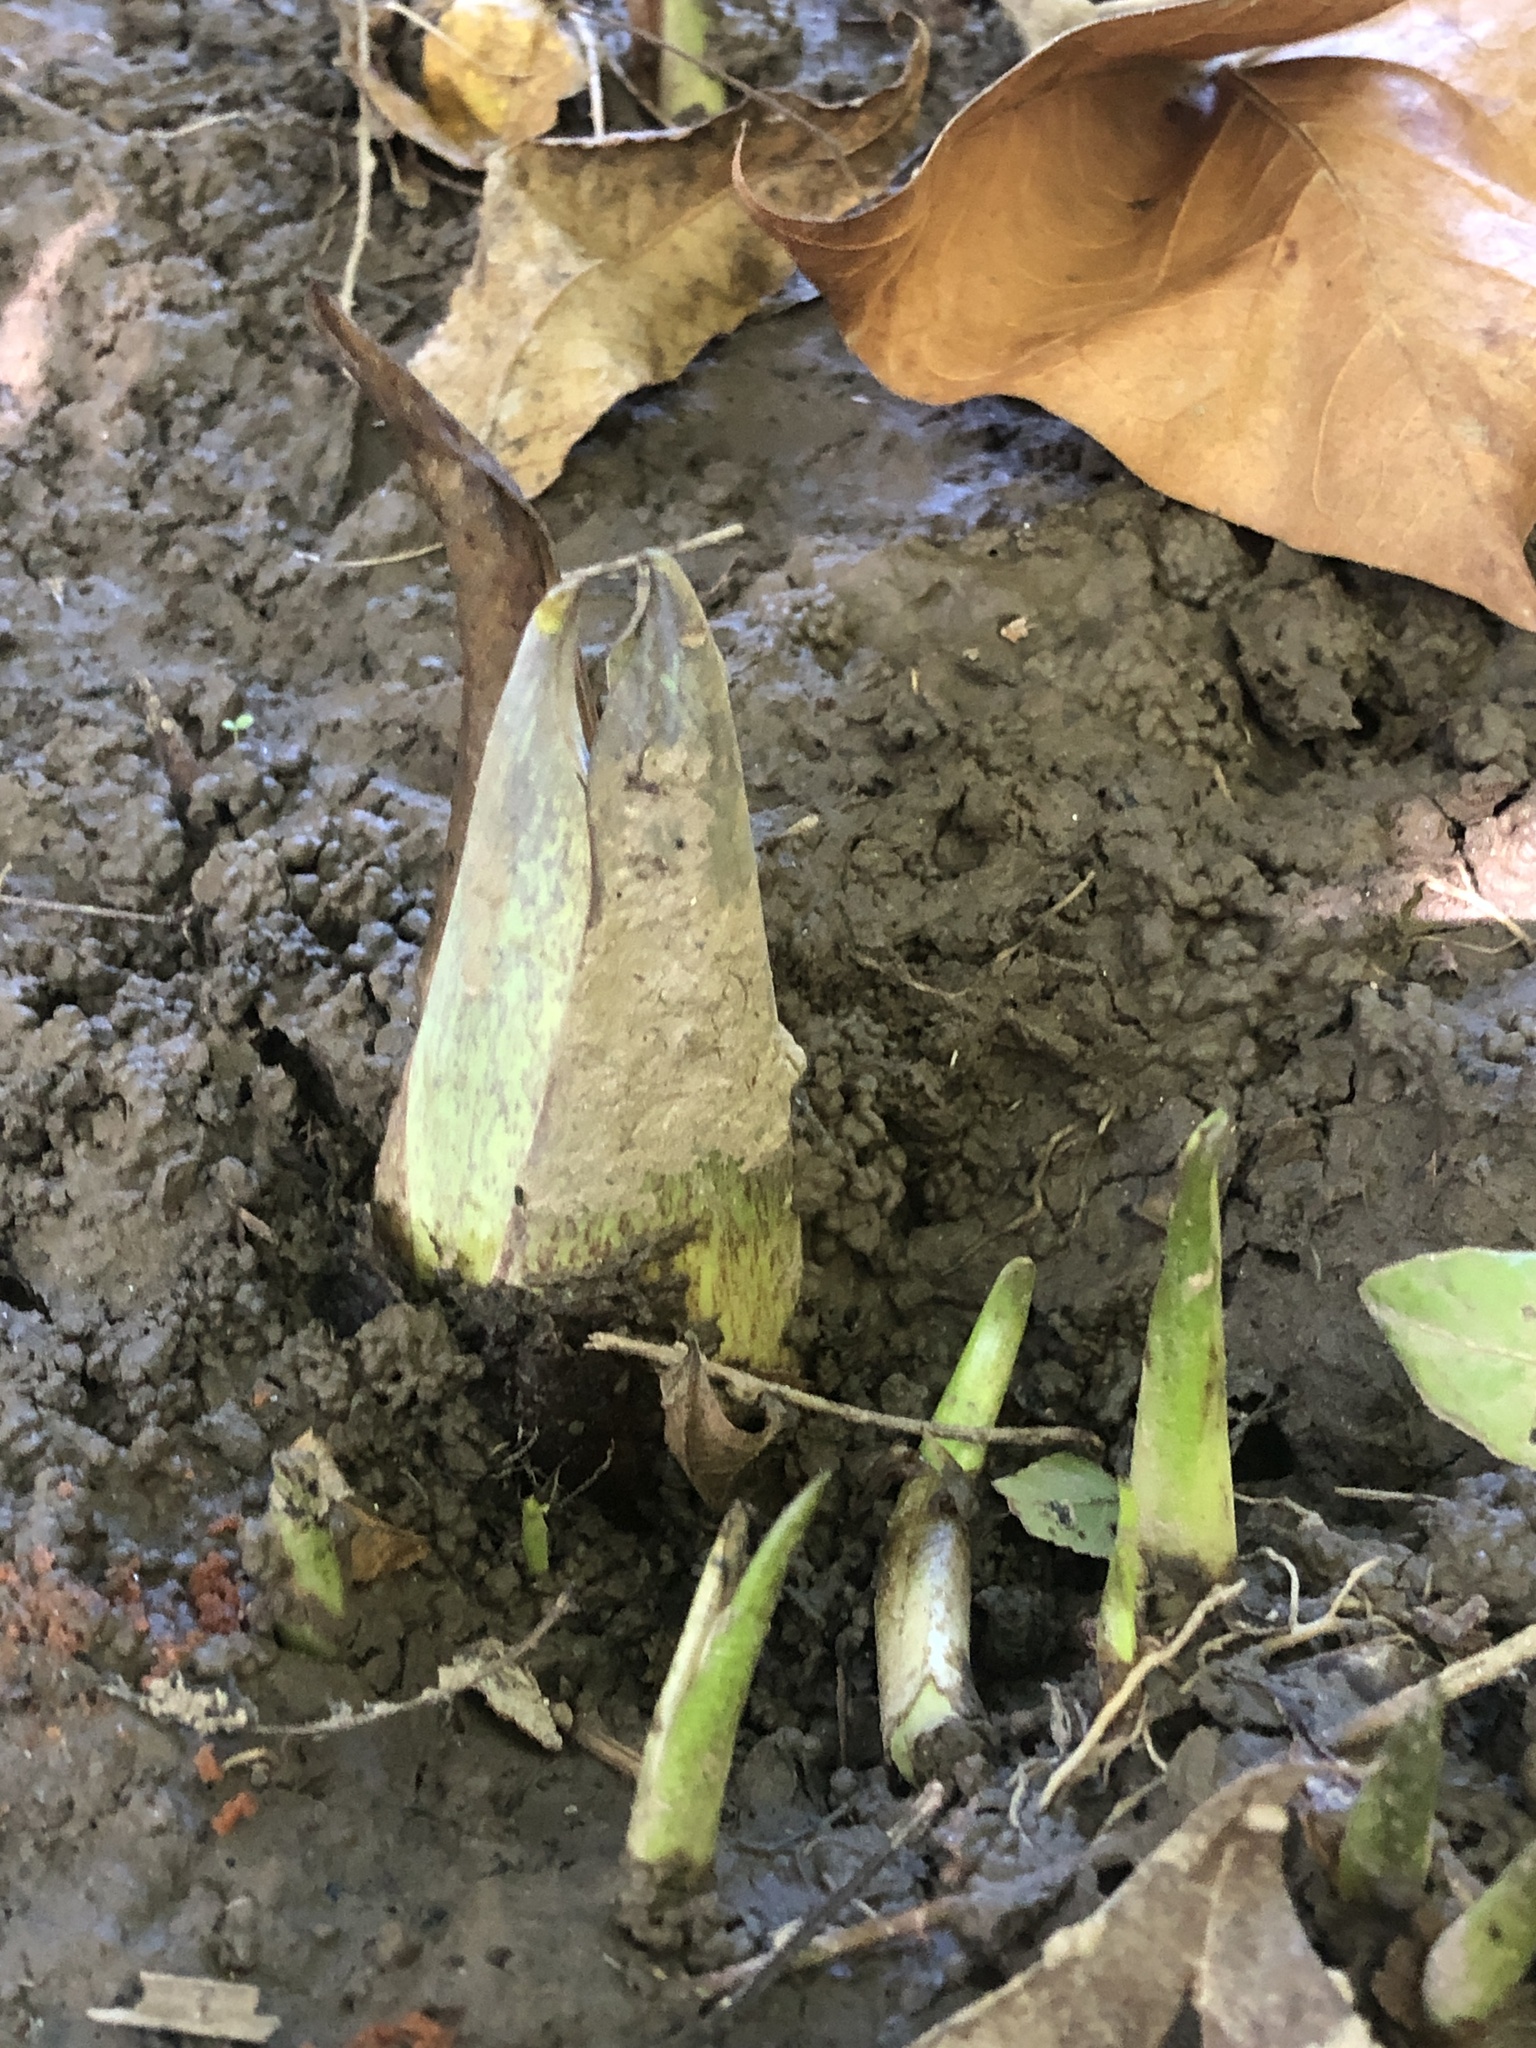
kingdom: Plantae
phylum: Tracheophyta
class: Liliopsida
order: Alismatales
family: Araceae
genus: Symplocarpus
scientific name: Symplocarpus foetidus
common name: Eastern skunk cabbage
